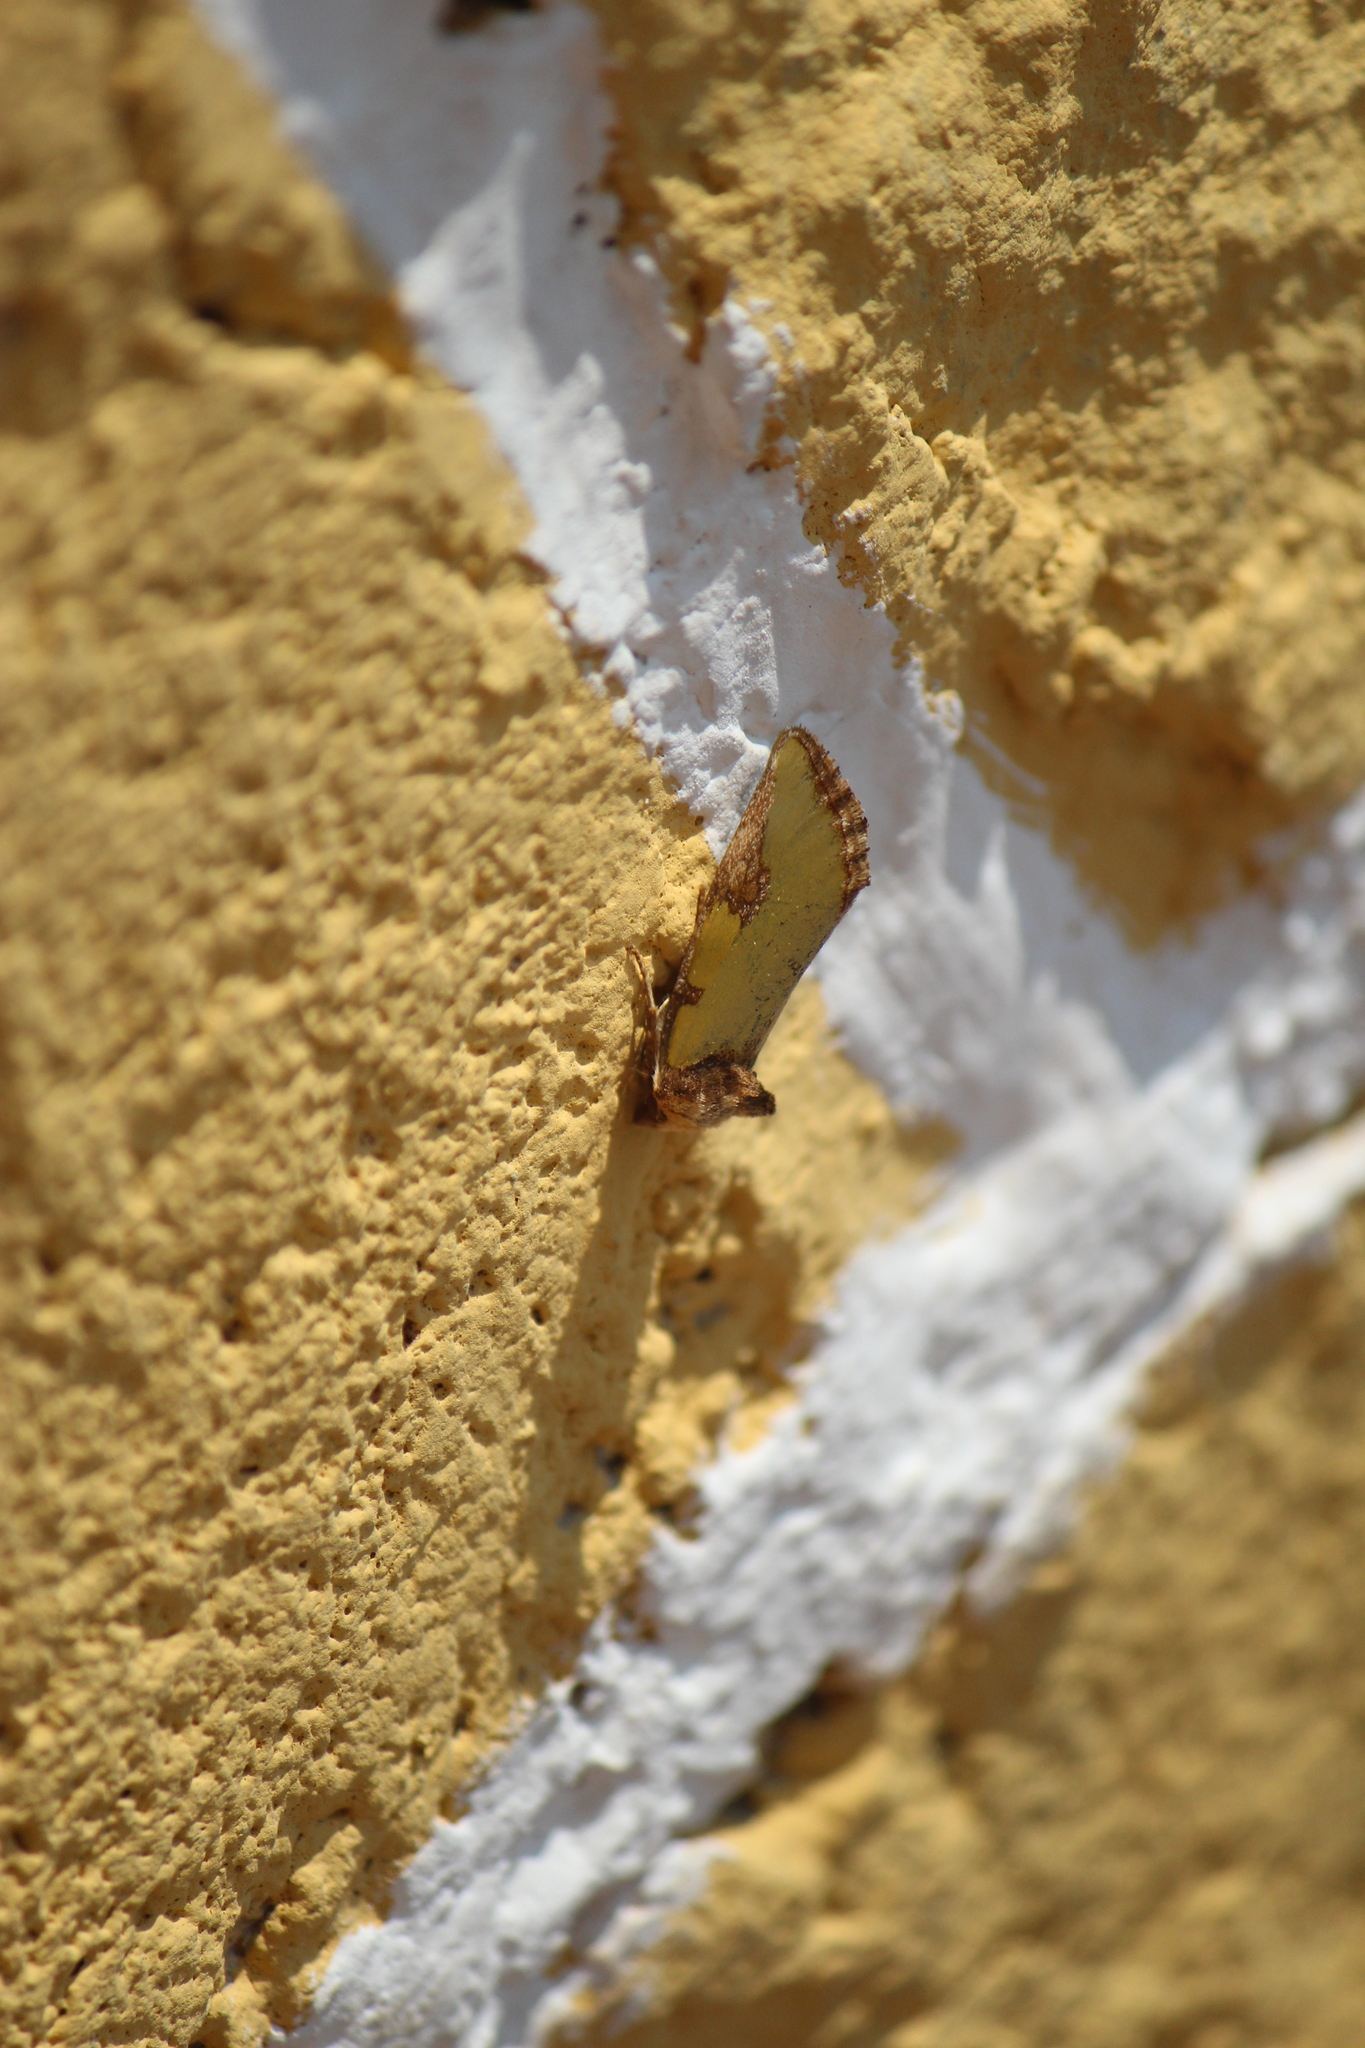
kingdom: Animalia
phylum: Arthropoda
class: Insecta
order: Lepidoptera
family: Noctuidae
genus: Chalcopasta
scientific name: Chalcopasta territans
